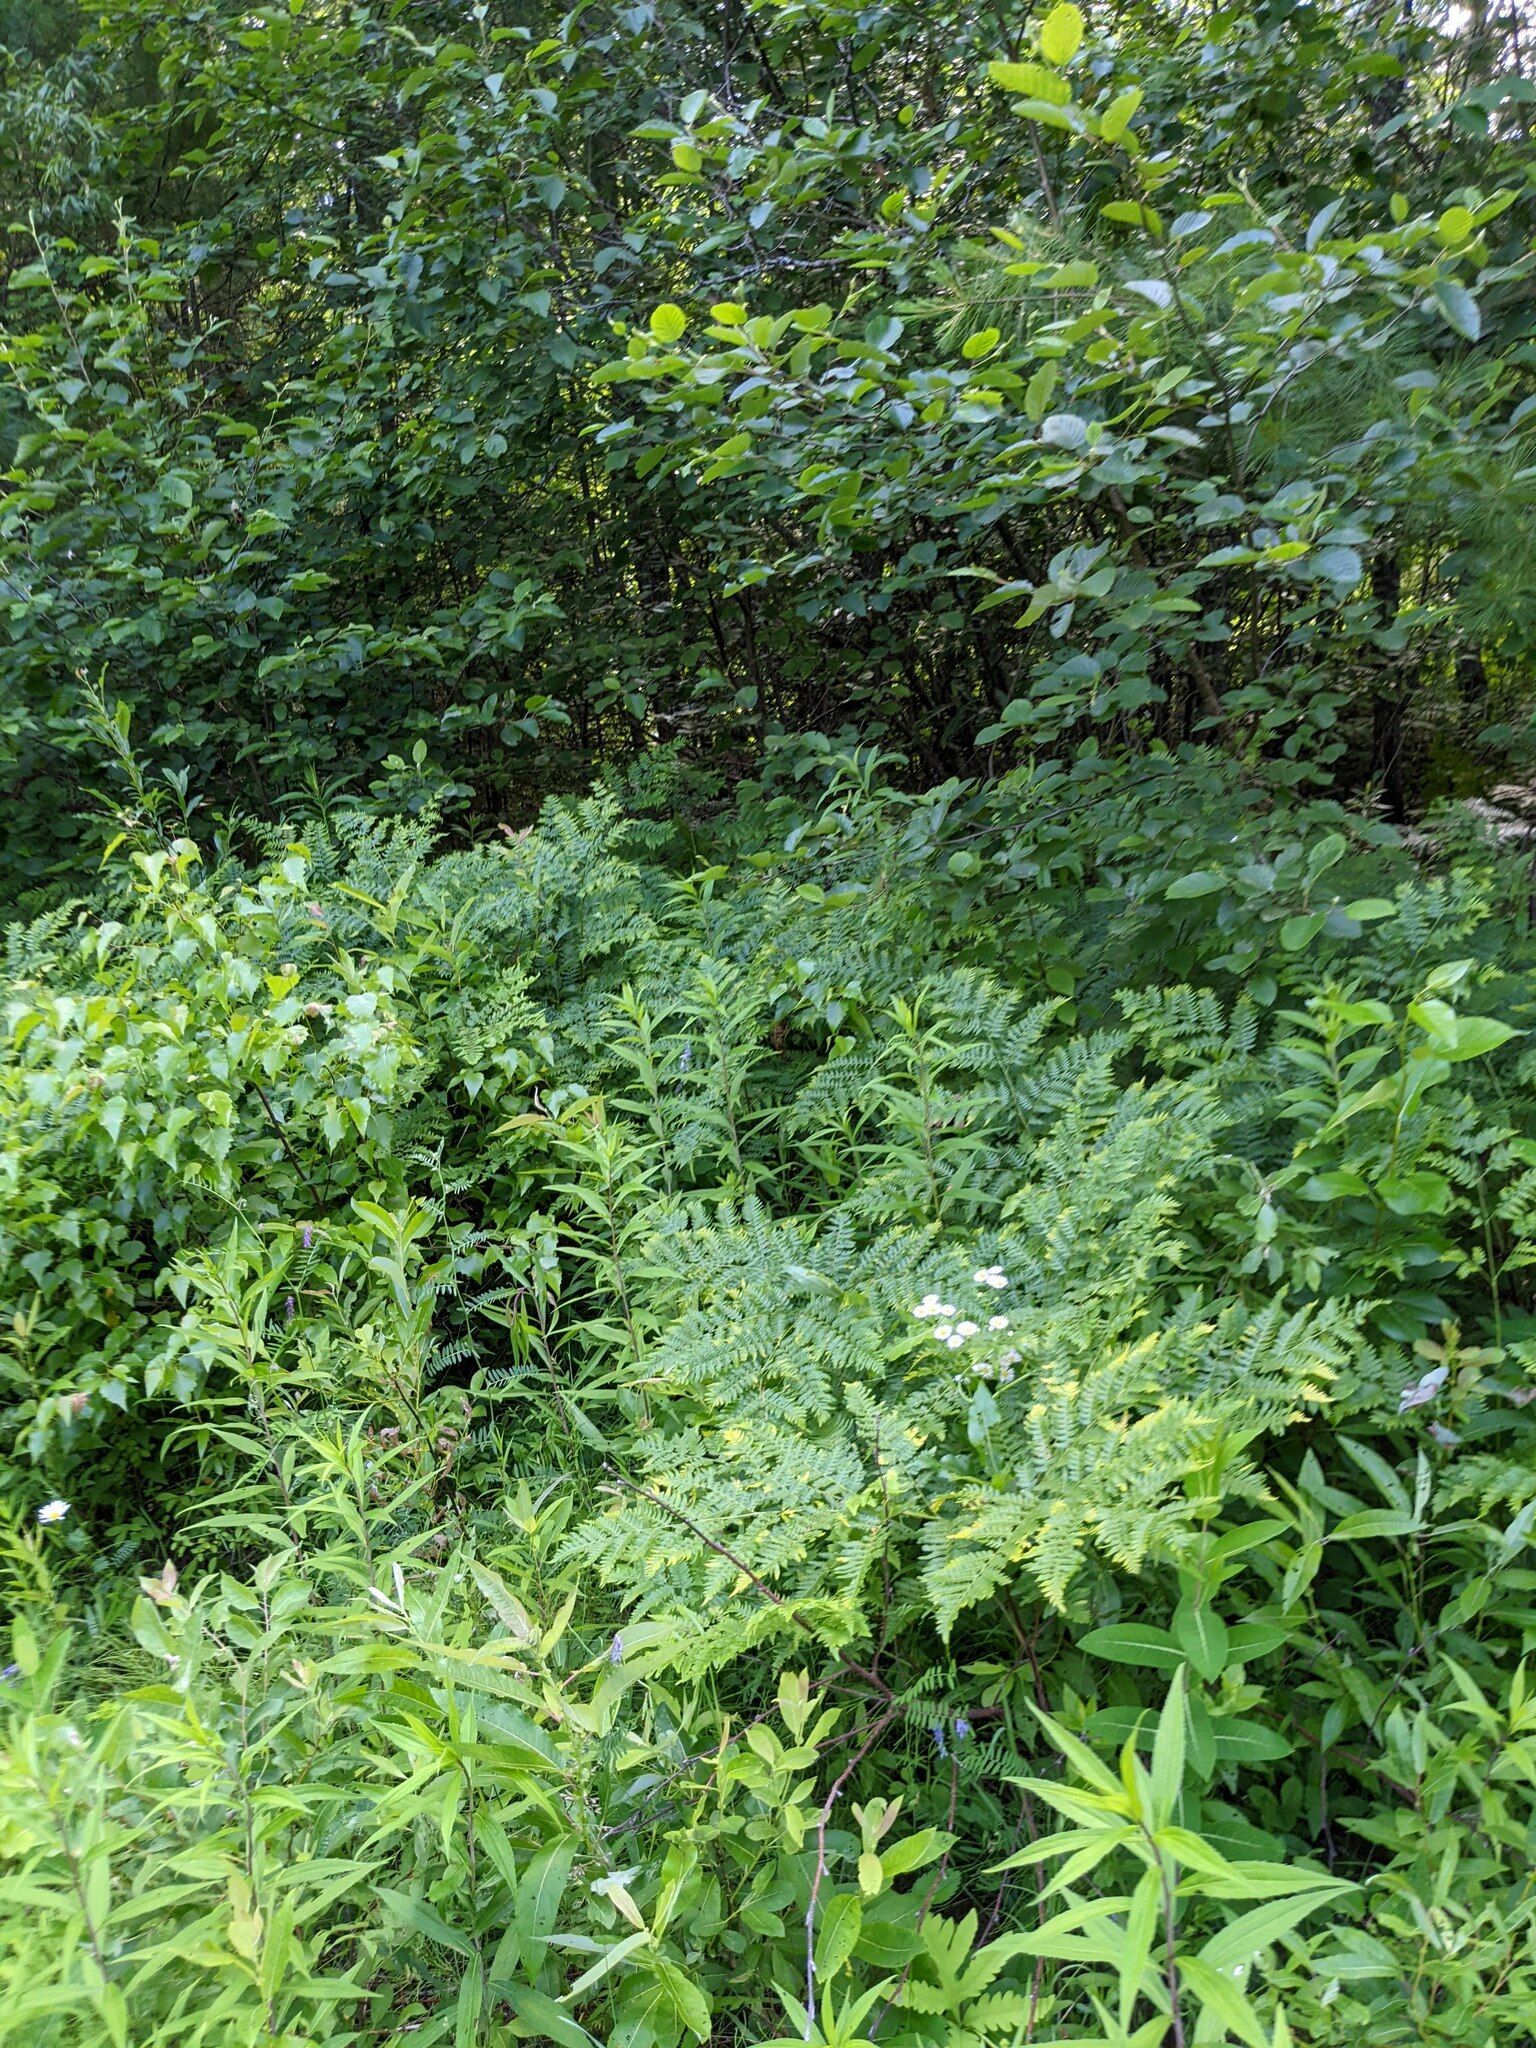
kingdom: Plantae
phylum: Tracheophyta
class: Polypodiopsida
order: Polypodiales
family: Dennstaedtiaceae
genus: Pteridium
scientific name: Pteridium aquilinum
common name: Bracken
